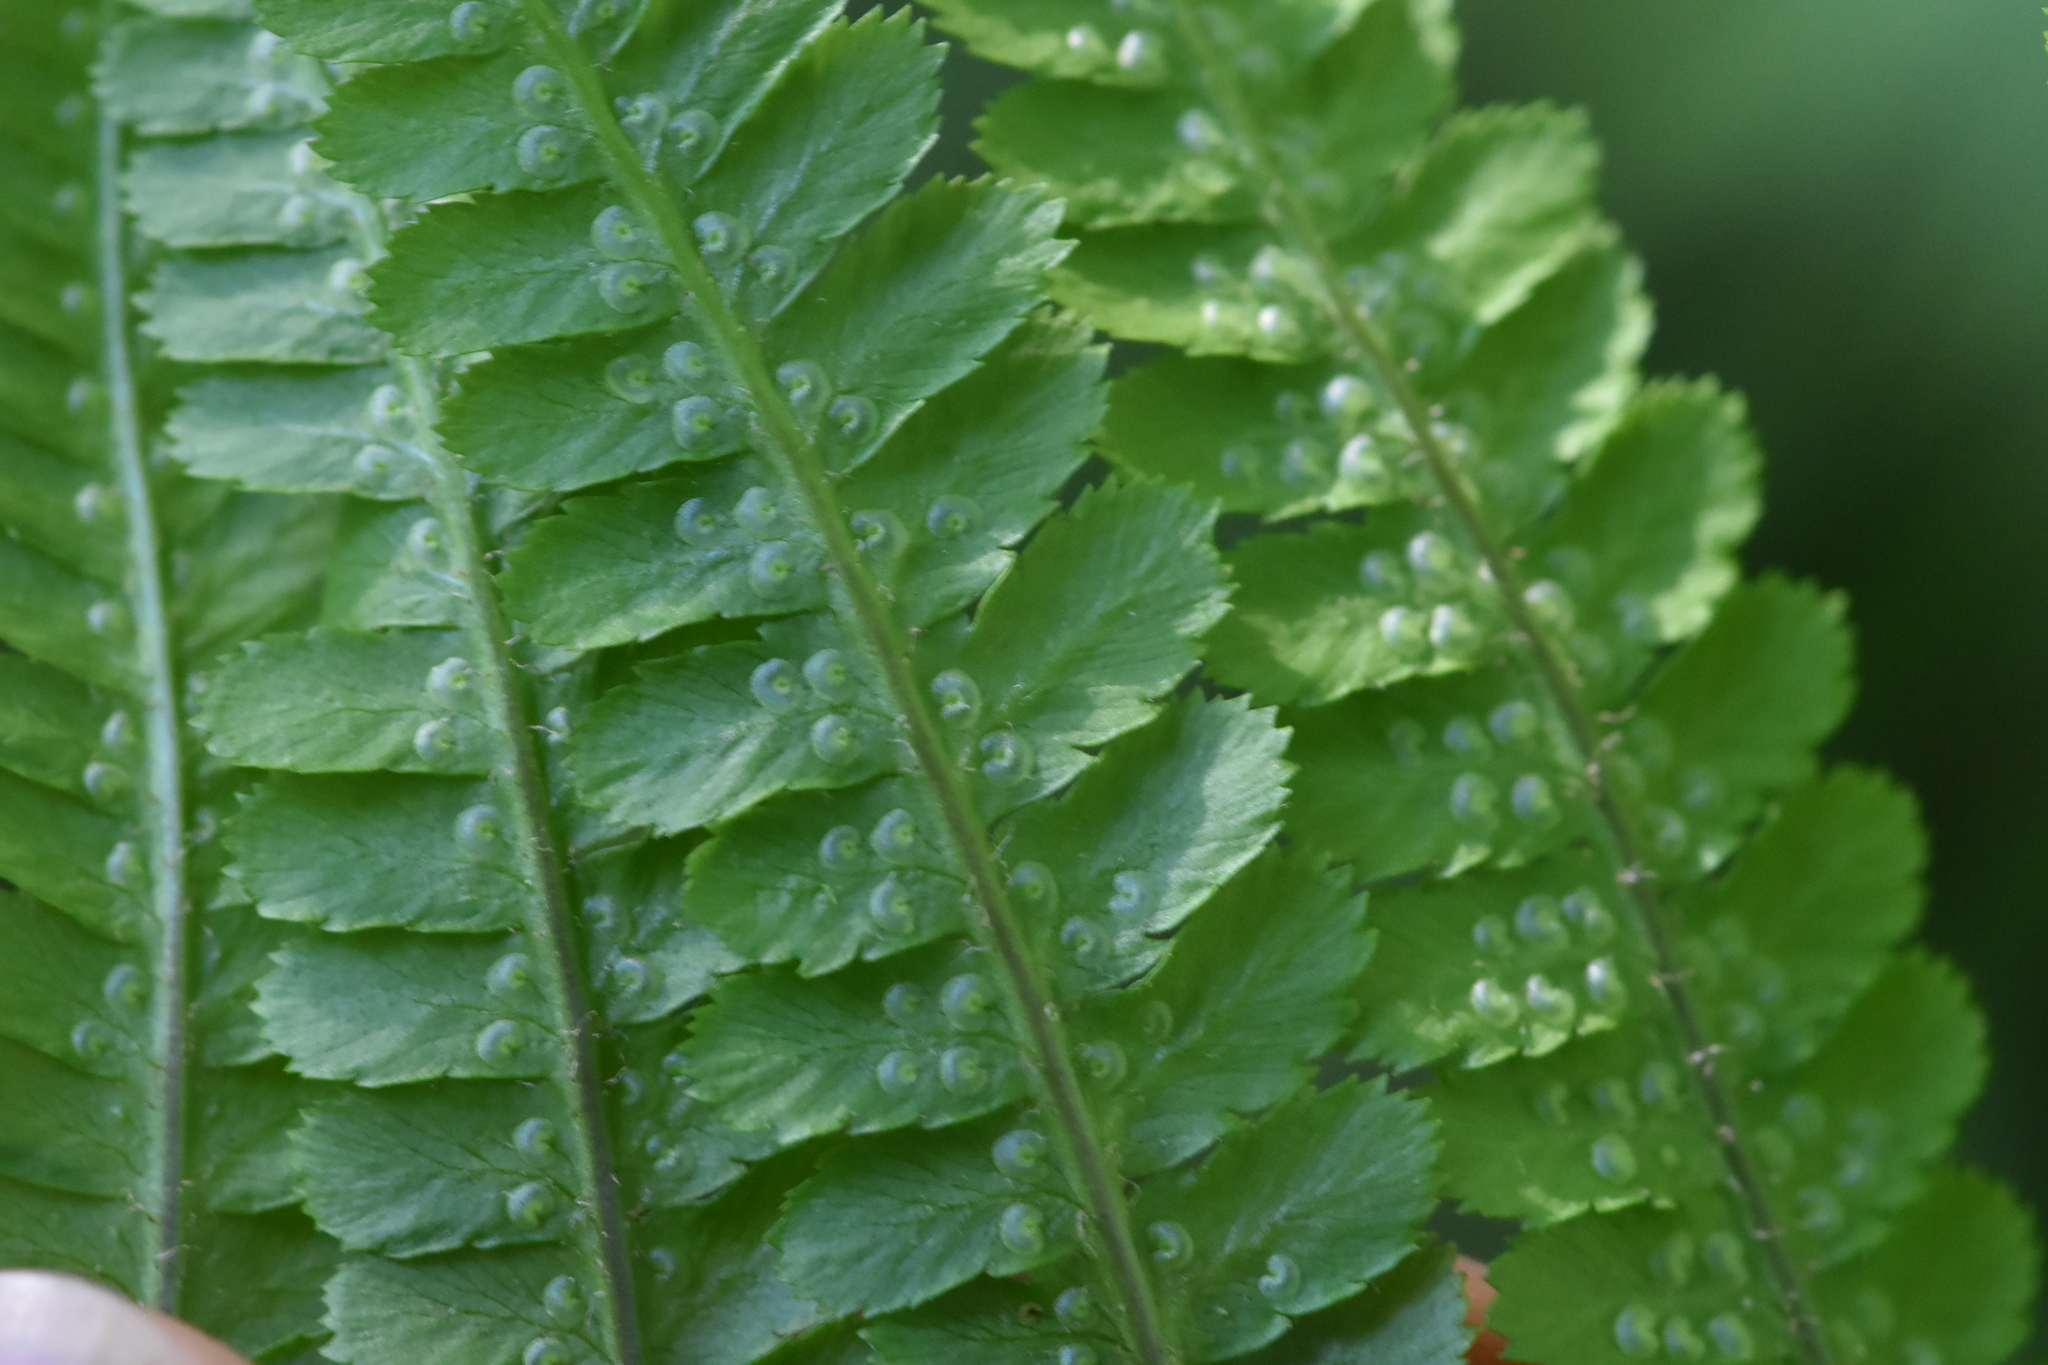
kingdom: Plantae
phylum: Tracheophyta
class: Polypodiopsida
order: Polypodiales
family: Dryopteridaceae
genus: Dryopteris
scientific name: Dryopteris filix-mas
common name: Male fern
